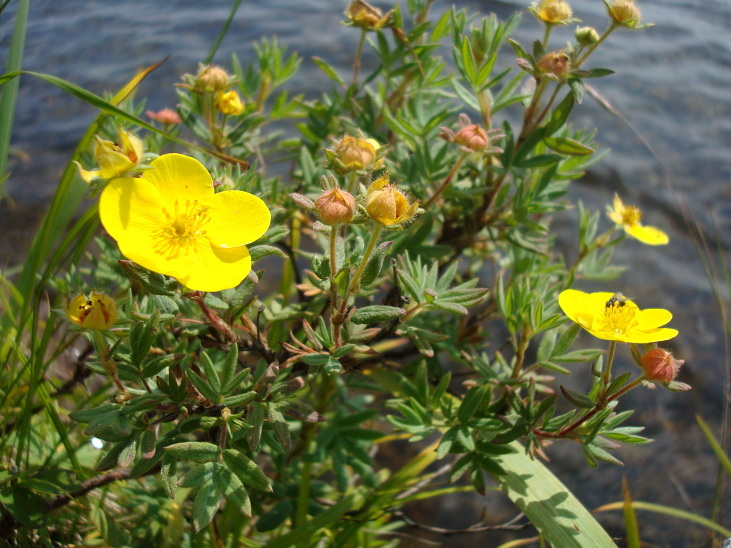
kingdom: Plantae
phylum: Tracheophyta
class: Magnoliopsida
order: Rosales
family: Rosaceae
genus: Dasiphora
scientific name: Dasiphora fruticosa
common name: Shrubby cinquefoil
